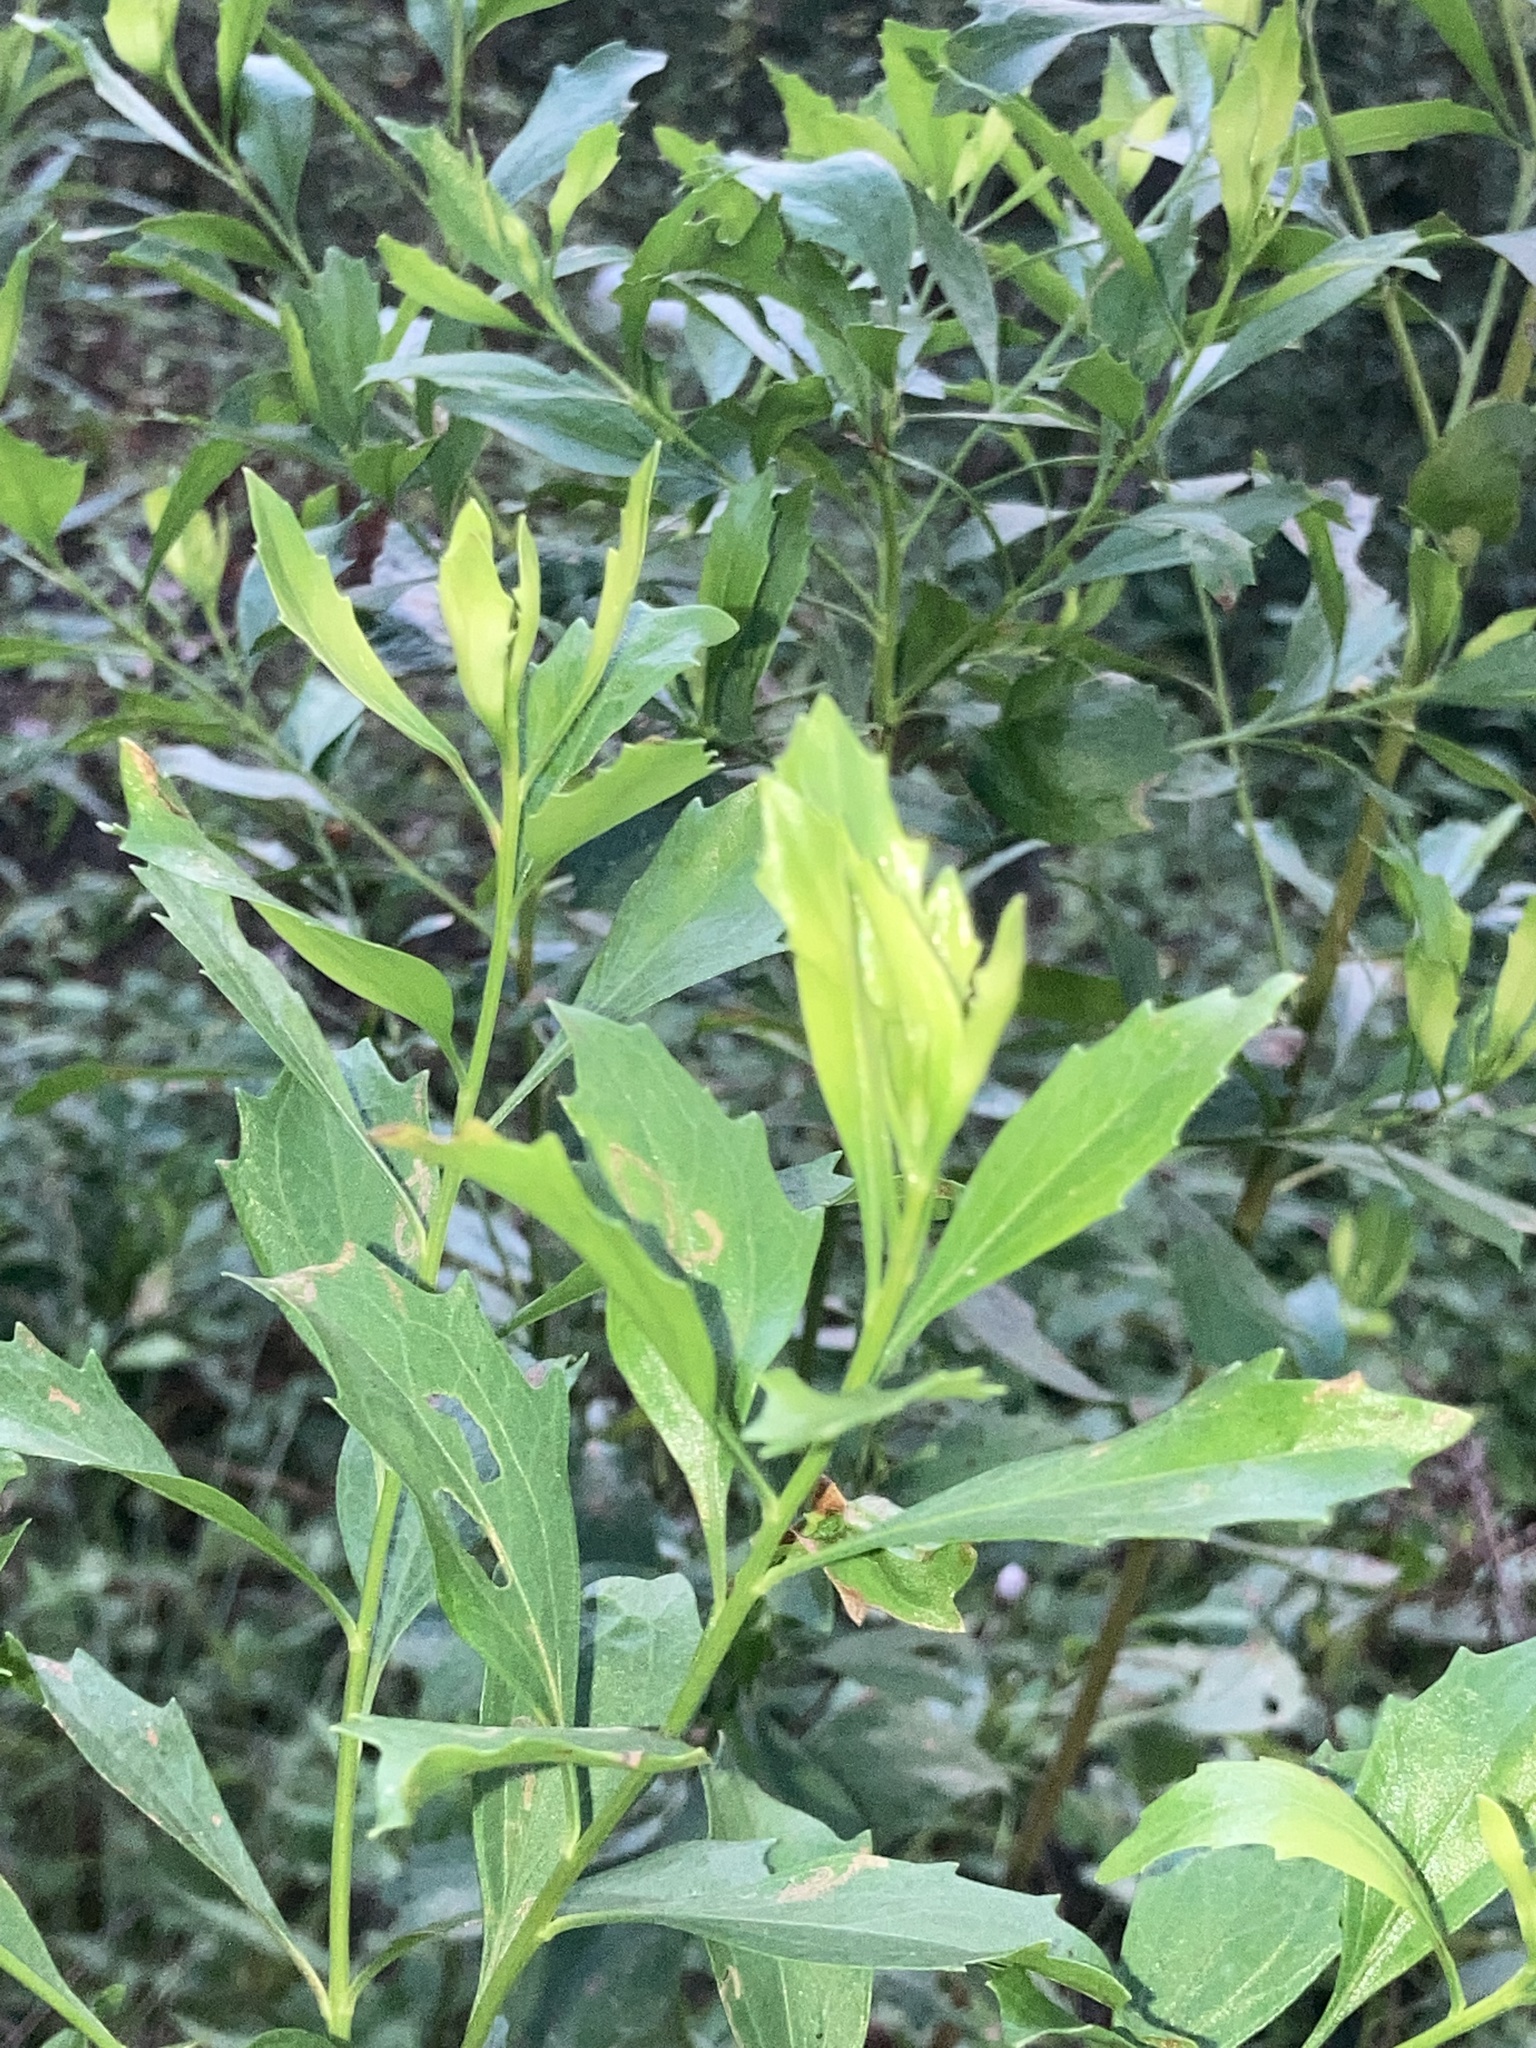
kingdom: Plantae
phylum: Tracheophyta
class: Magnoliopsida
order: Asterales
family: Asteraceae
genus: Baccharis
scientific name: Baccharis halimifolia
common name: Eastern baccharis
